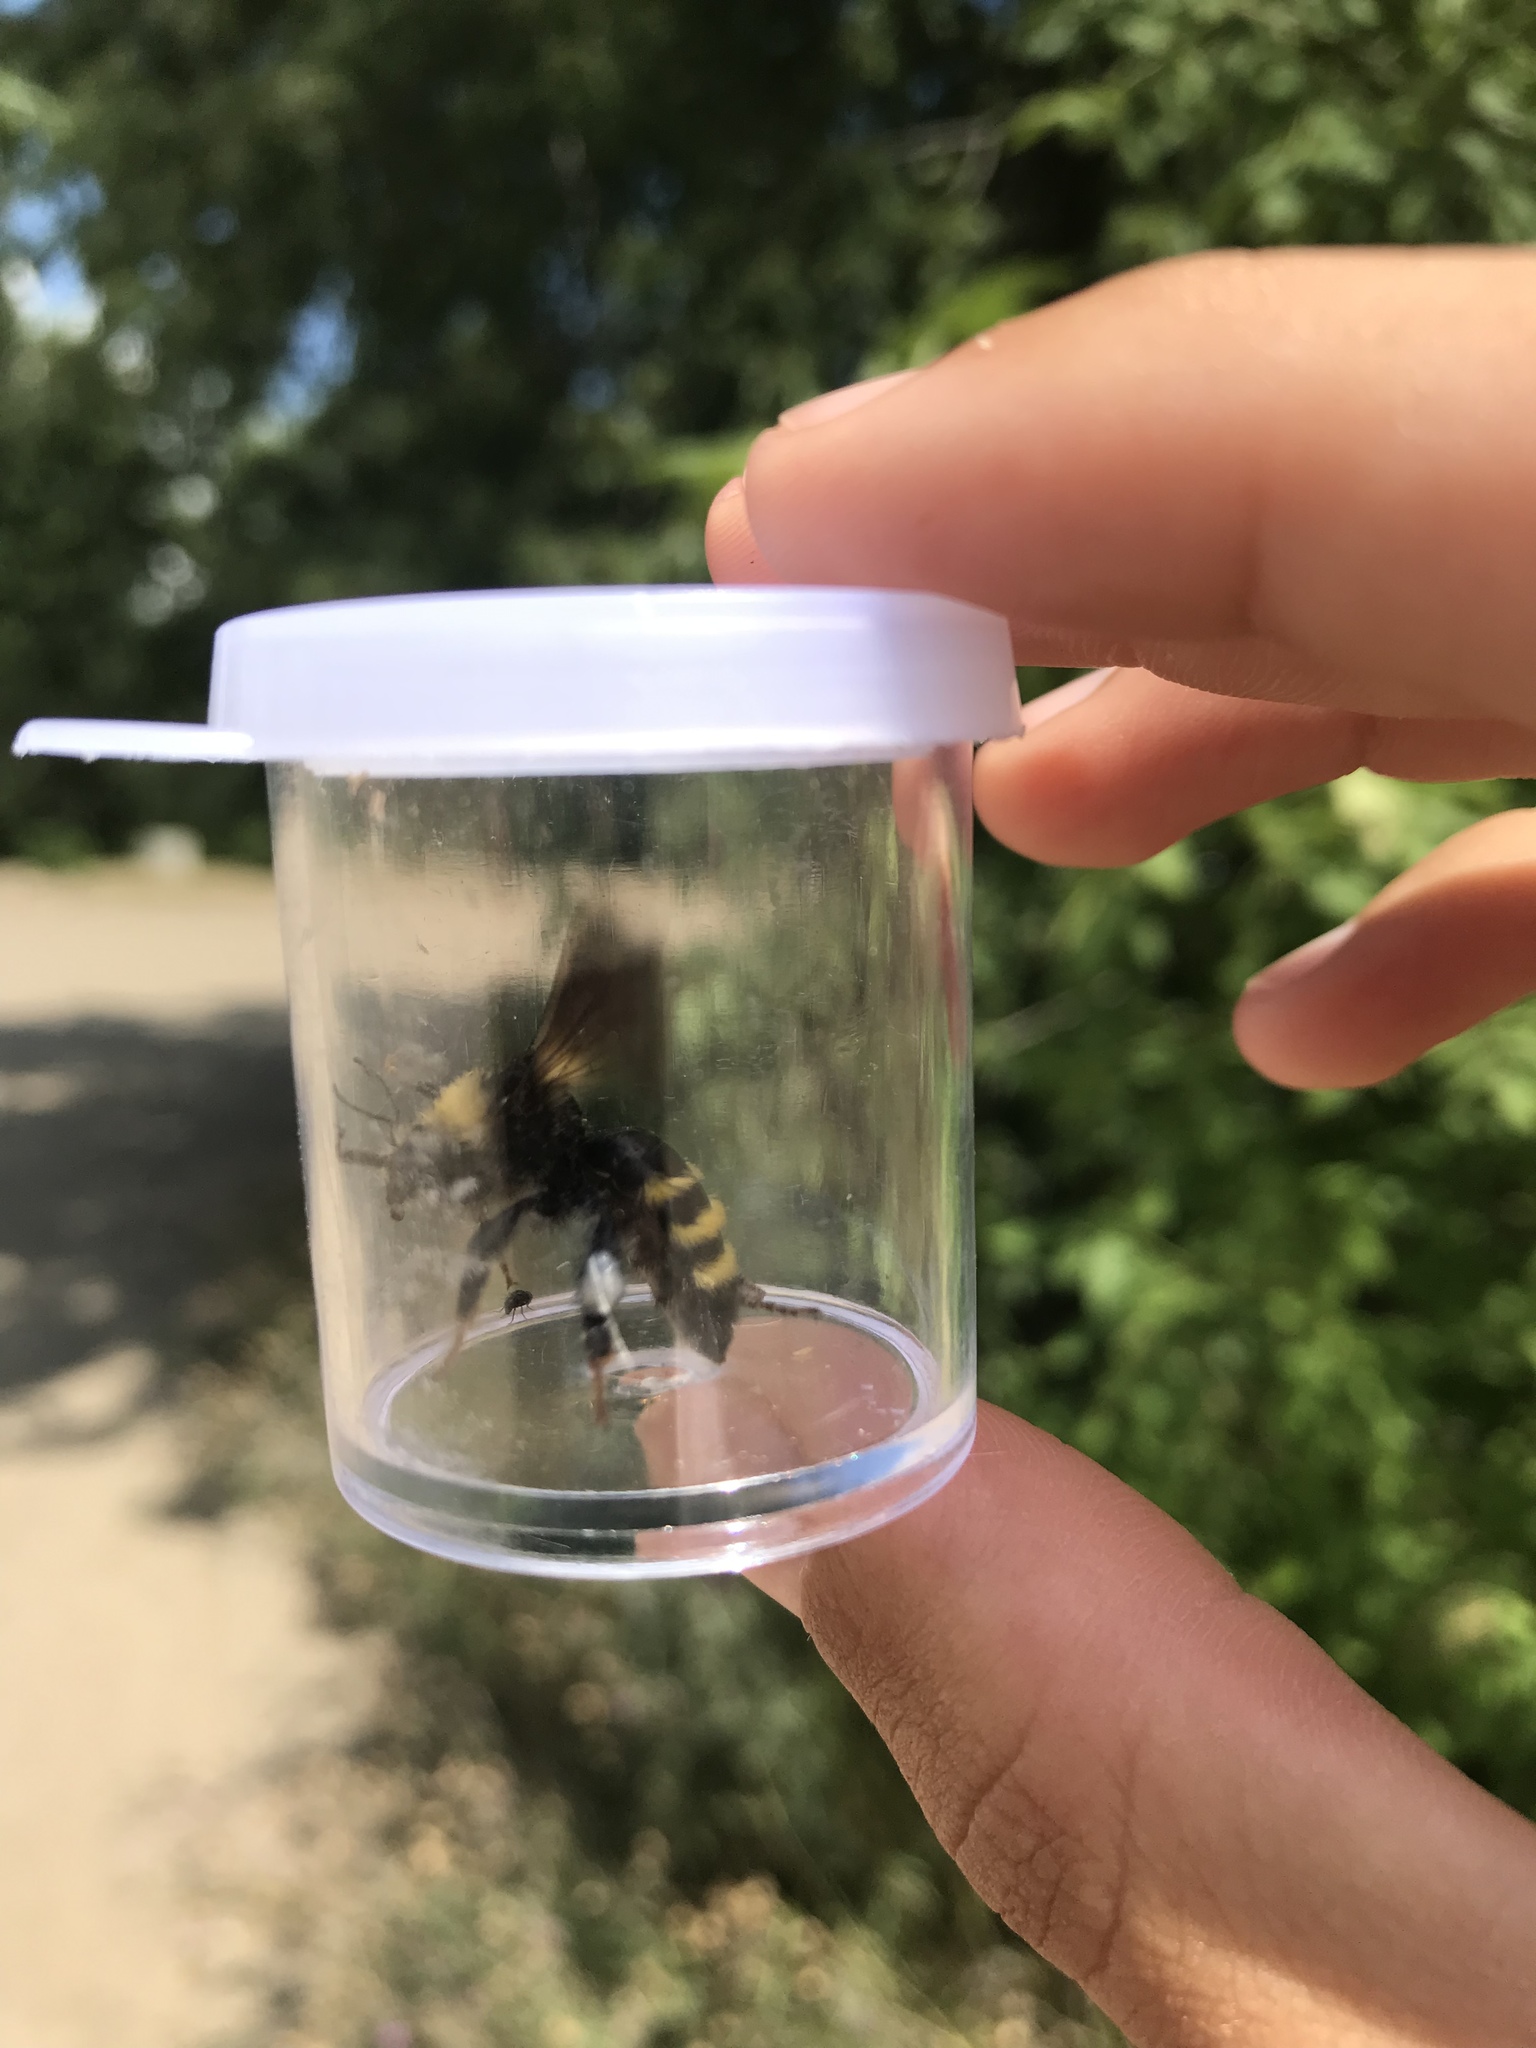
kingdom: Animalia
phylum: Arthropoda
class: Insecta
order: Hymenoptera
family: Apidae
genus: Bombus
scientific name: Bombus borealis
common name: Northern amber bumble bee
